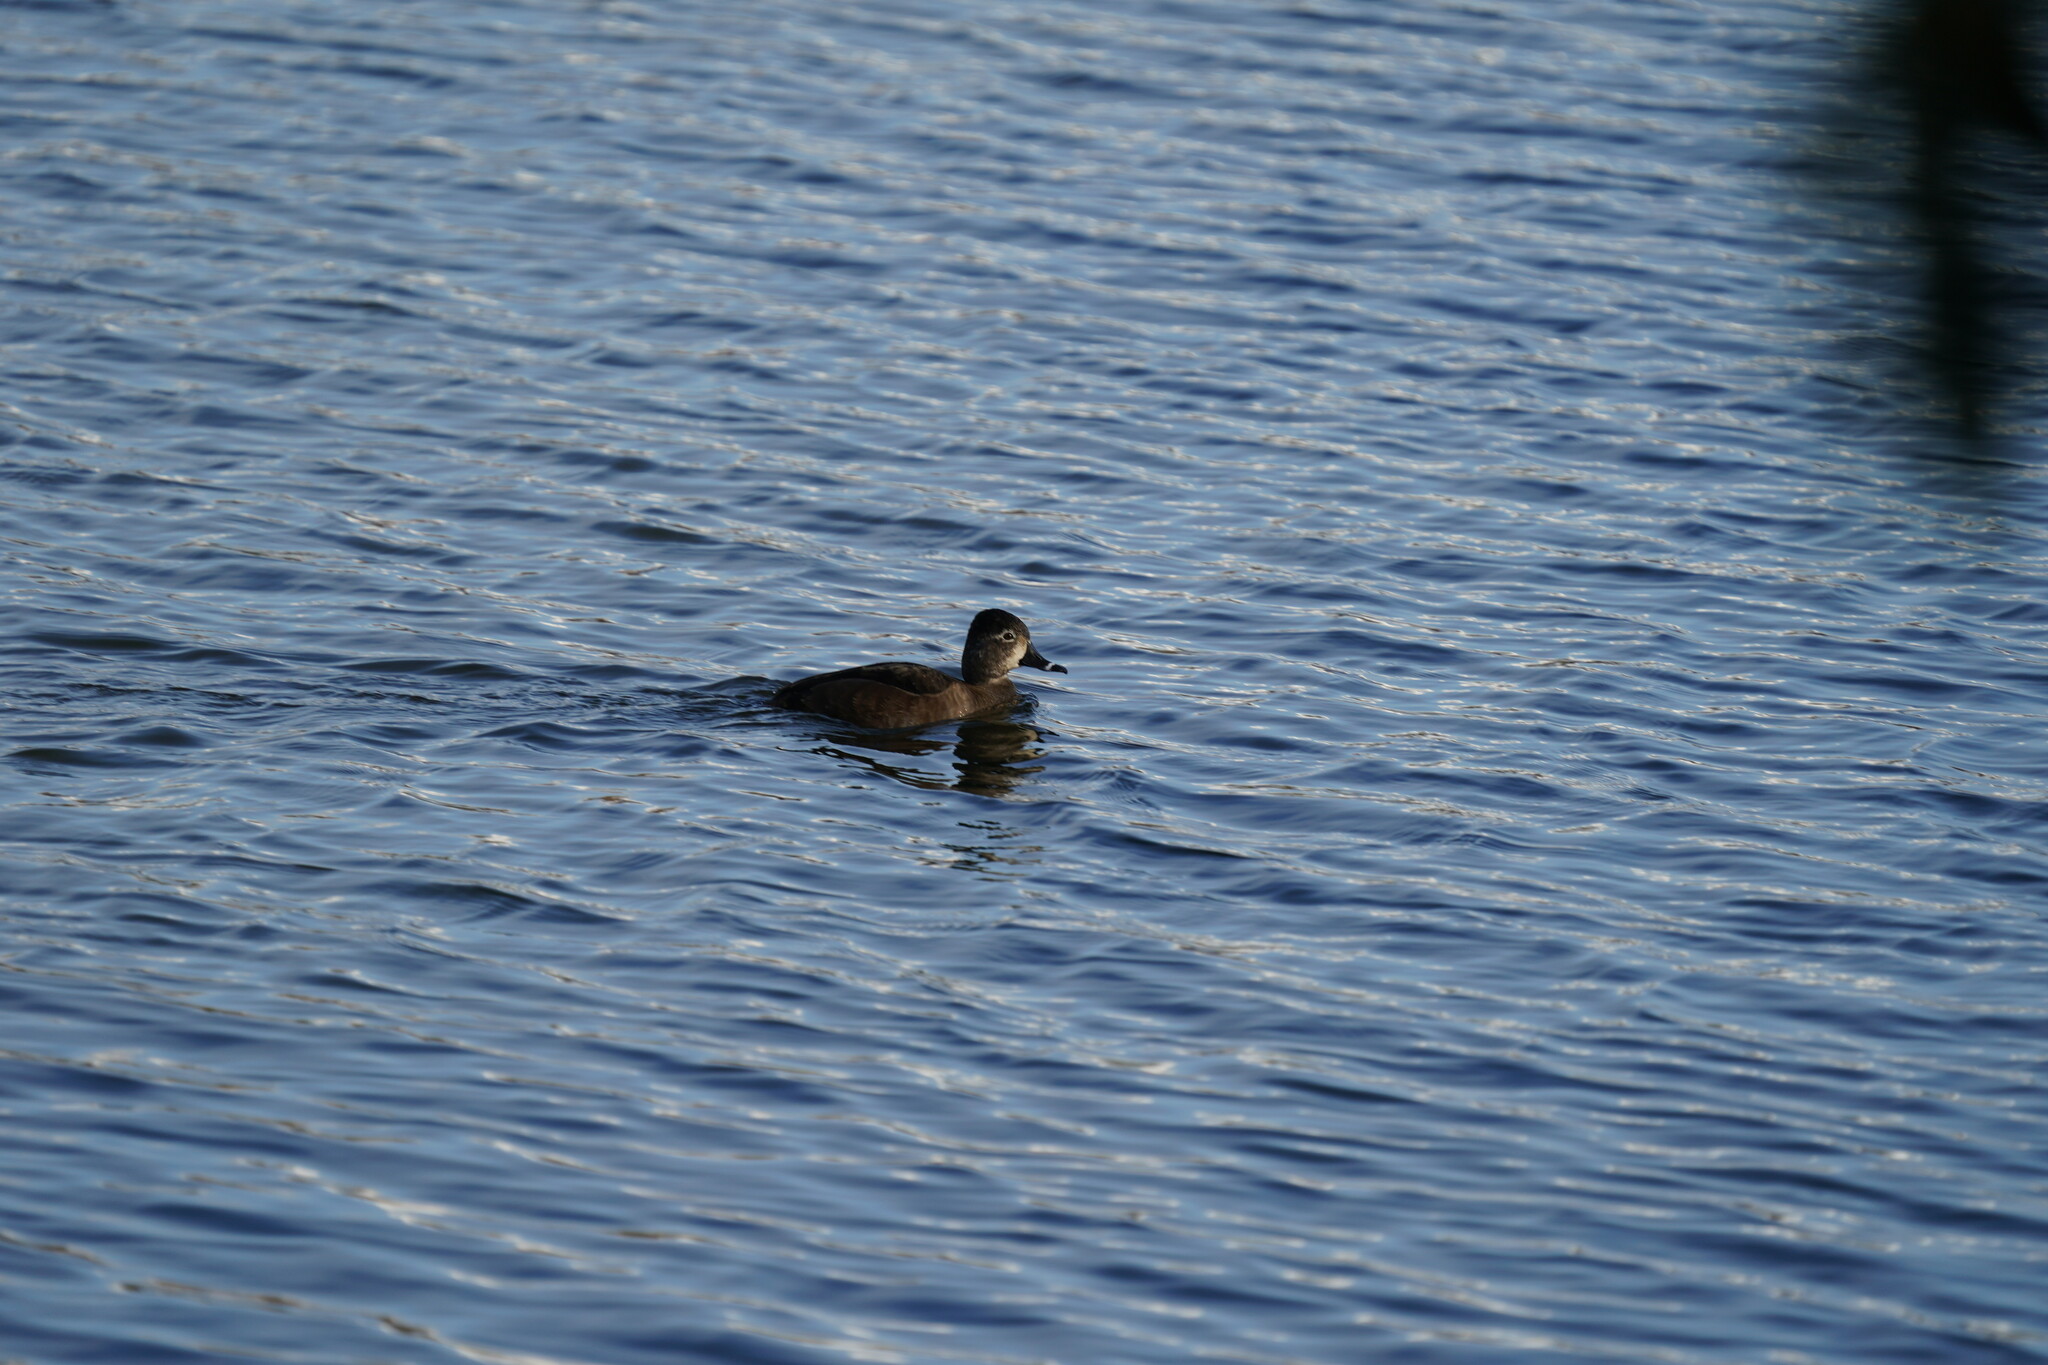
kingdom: Animalia
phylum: Chordata
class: Aves
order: Anseriformes
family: Anatidae
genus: Aythya
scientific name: Aythya collaris
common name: Ring-necked duck
